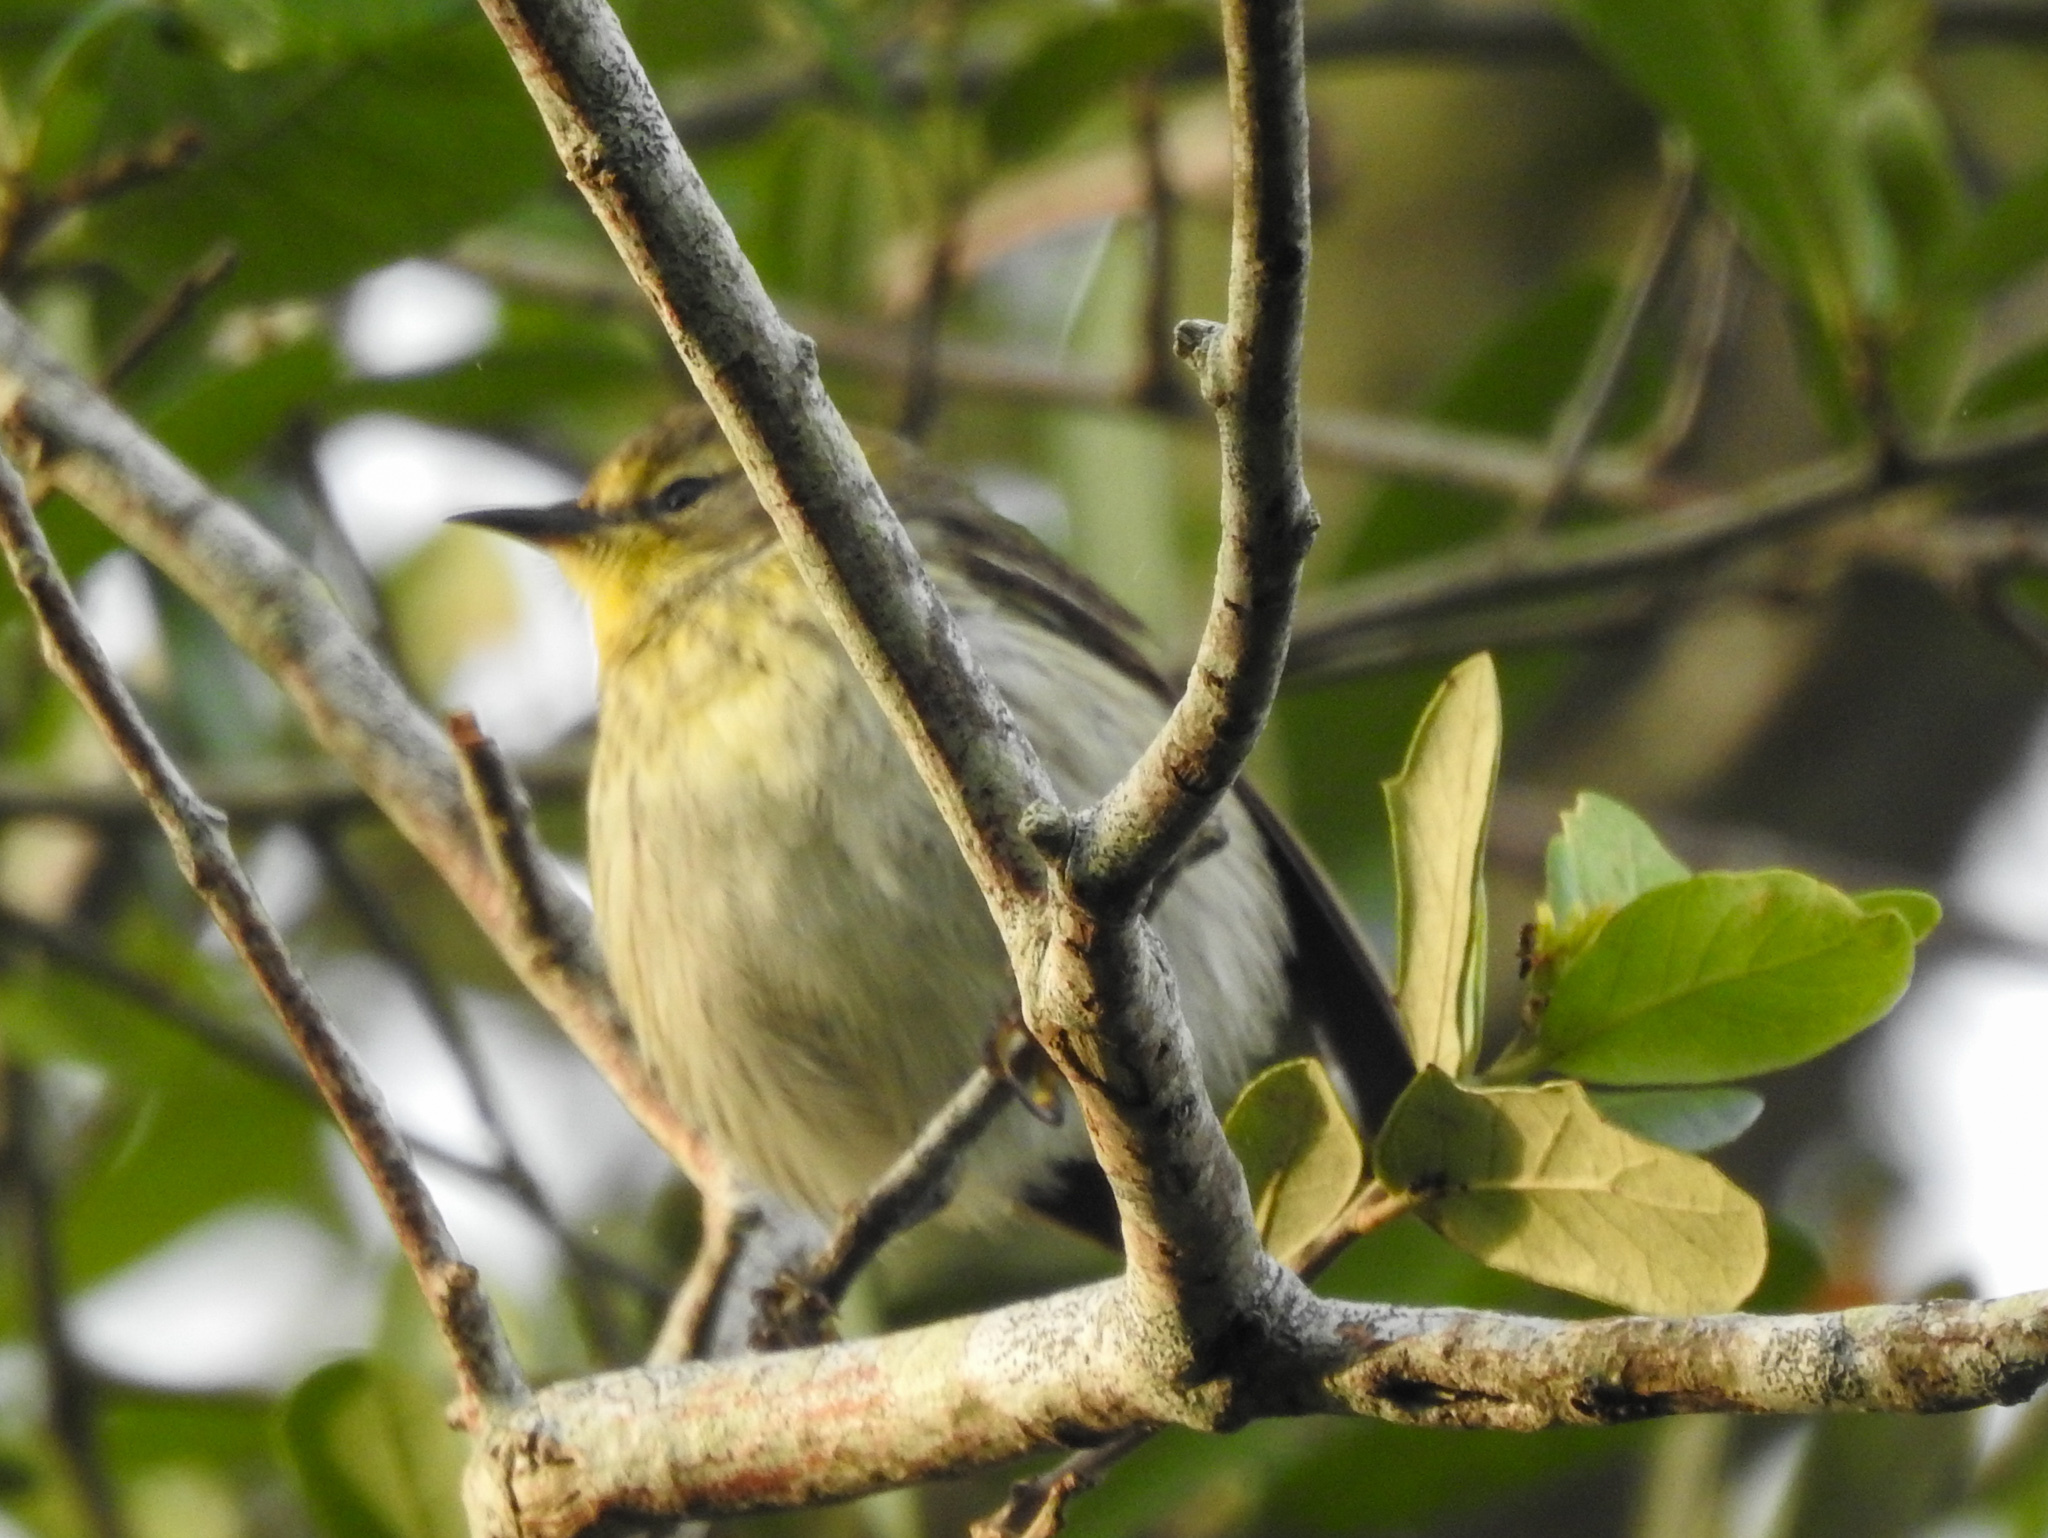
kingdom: Animalia
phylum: Chordata
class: Aves
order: Passeriformes
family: Parulidae
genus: Setophaga
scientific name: Setophaga tigrina
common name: Cape may warbler
